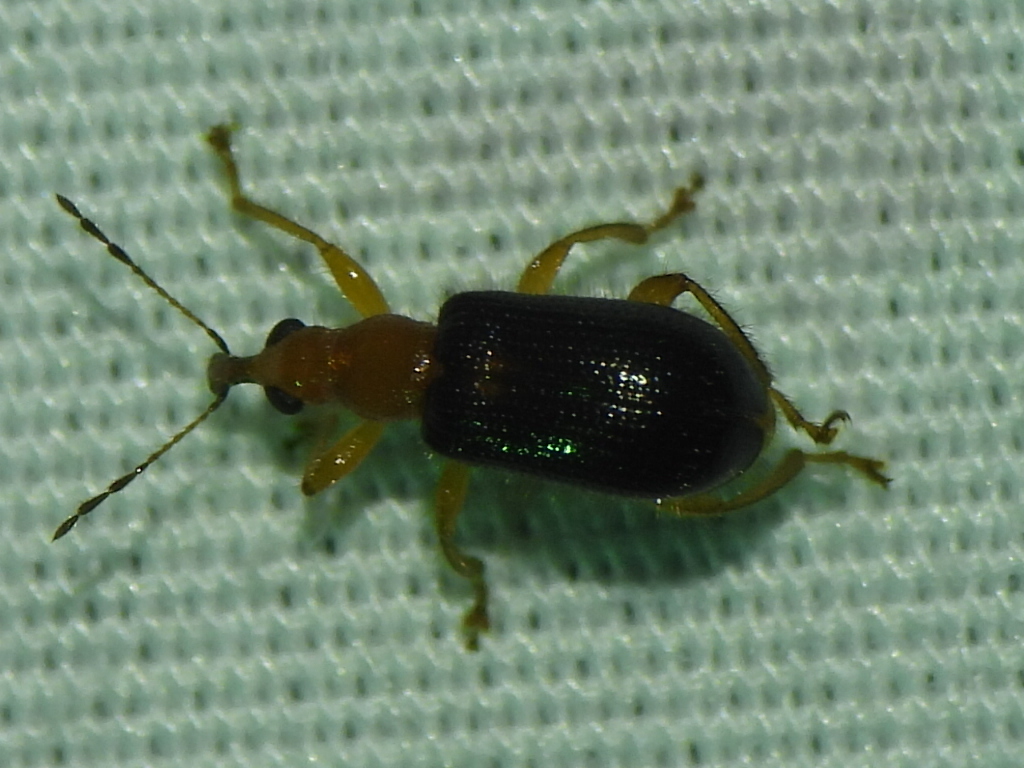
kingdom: Animalia
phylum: Arthropoda
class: Insecta
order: Coleoptera
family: Attelabidae
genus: Eugnamptus
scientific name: Eugnamptus angustatus
